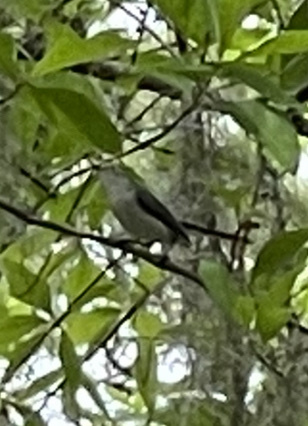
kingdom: Animalia
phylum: Chordata
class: Aves
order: Passeriformes
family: Polioptilidae
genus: Polioptila
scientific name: Polioptila caerulea
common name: Blue-gray gnatcatcher
